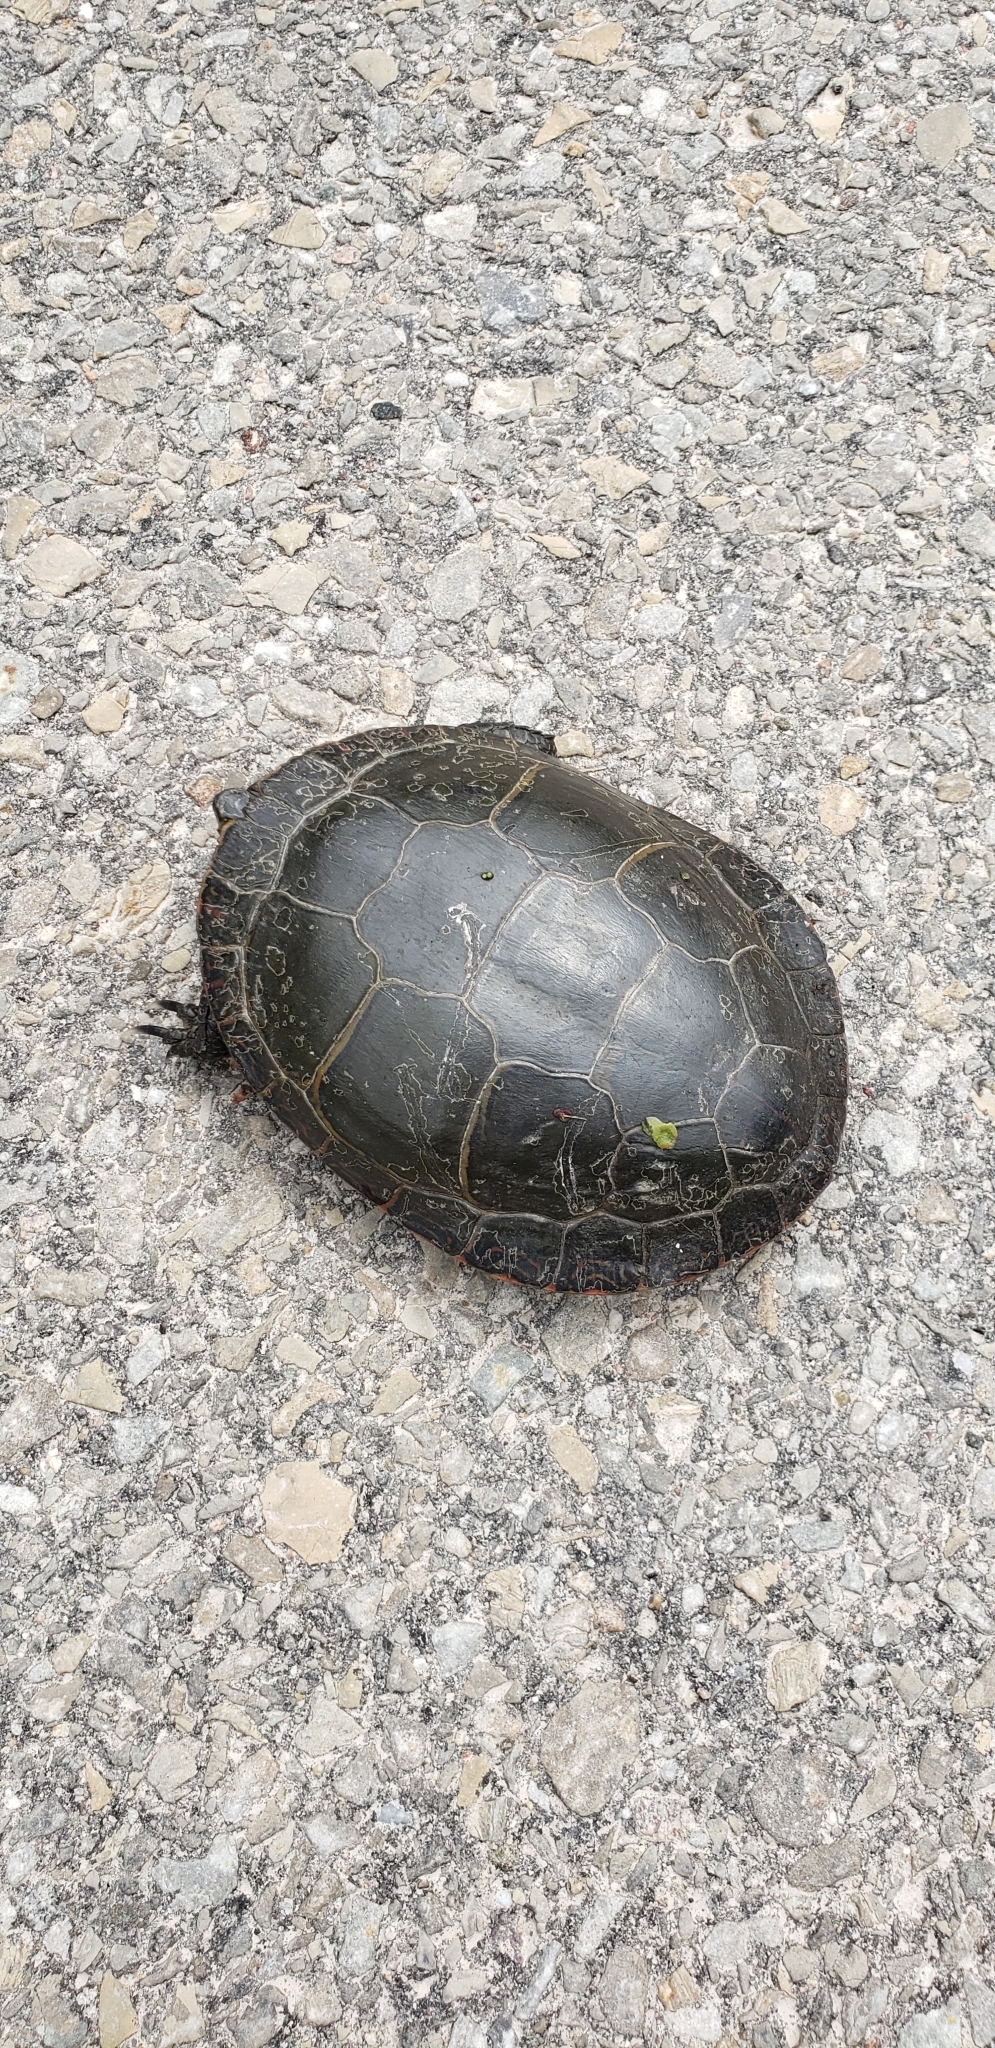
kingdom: Animalia
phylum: Chordata
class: Testudines
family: Emydidae
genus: Chrysemys
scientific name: Chrysemys picta
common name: Painted turtle
